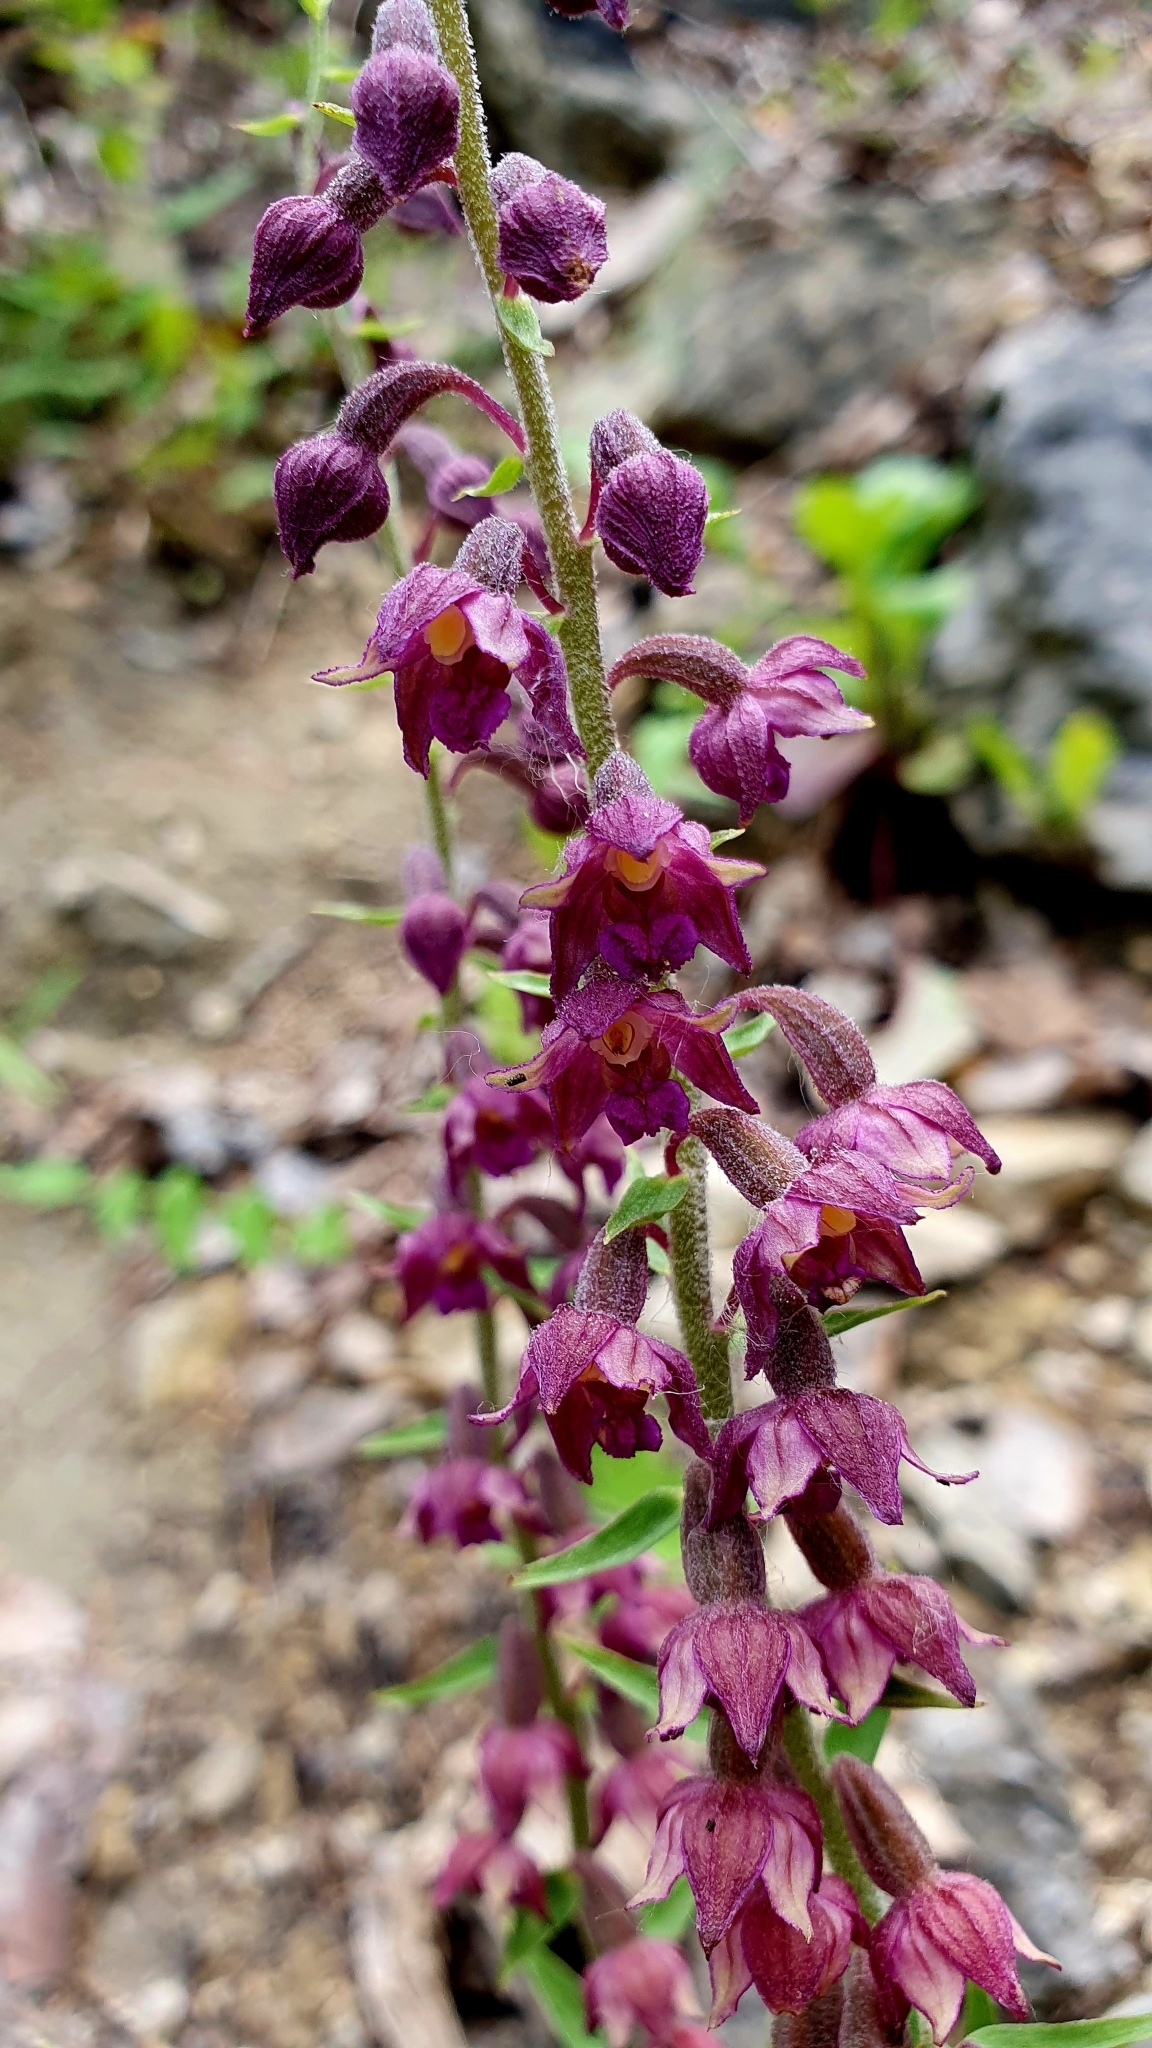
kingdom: Plantae
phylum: Tracheophyta
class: Liliopsida
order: Asparagales
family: Orchidaceae
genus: Epipactis
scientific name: Epipactis atrorubens
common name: Dark-red helleborine
